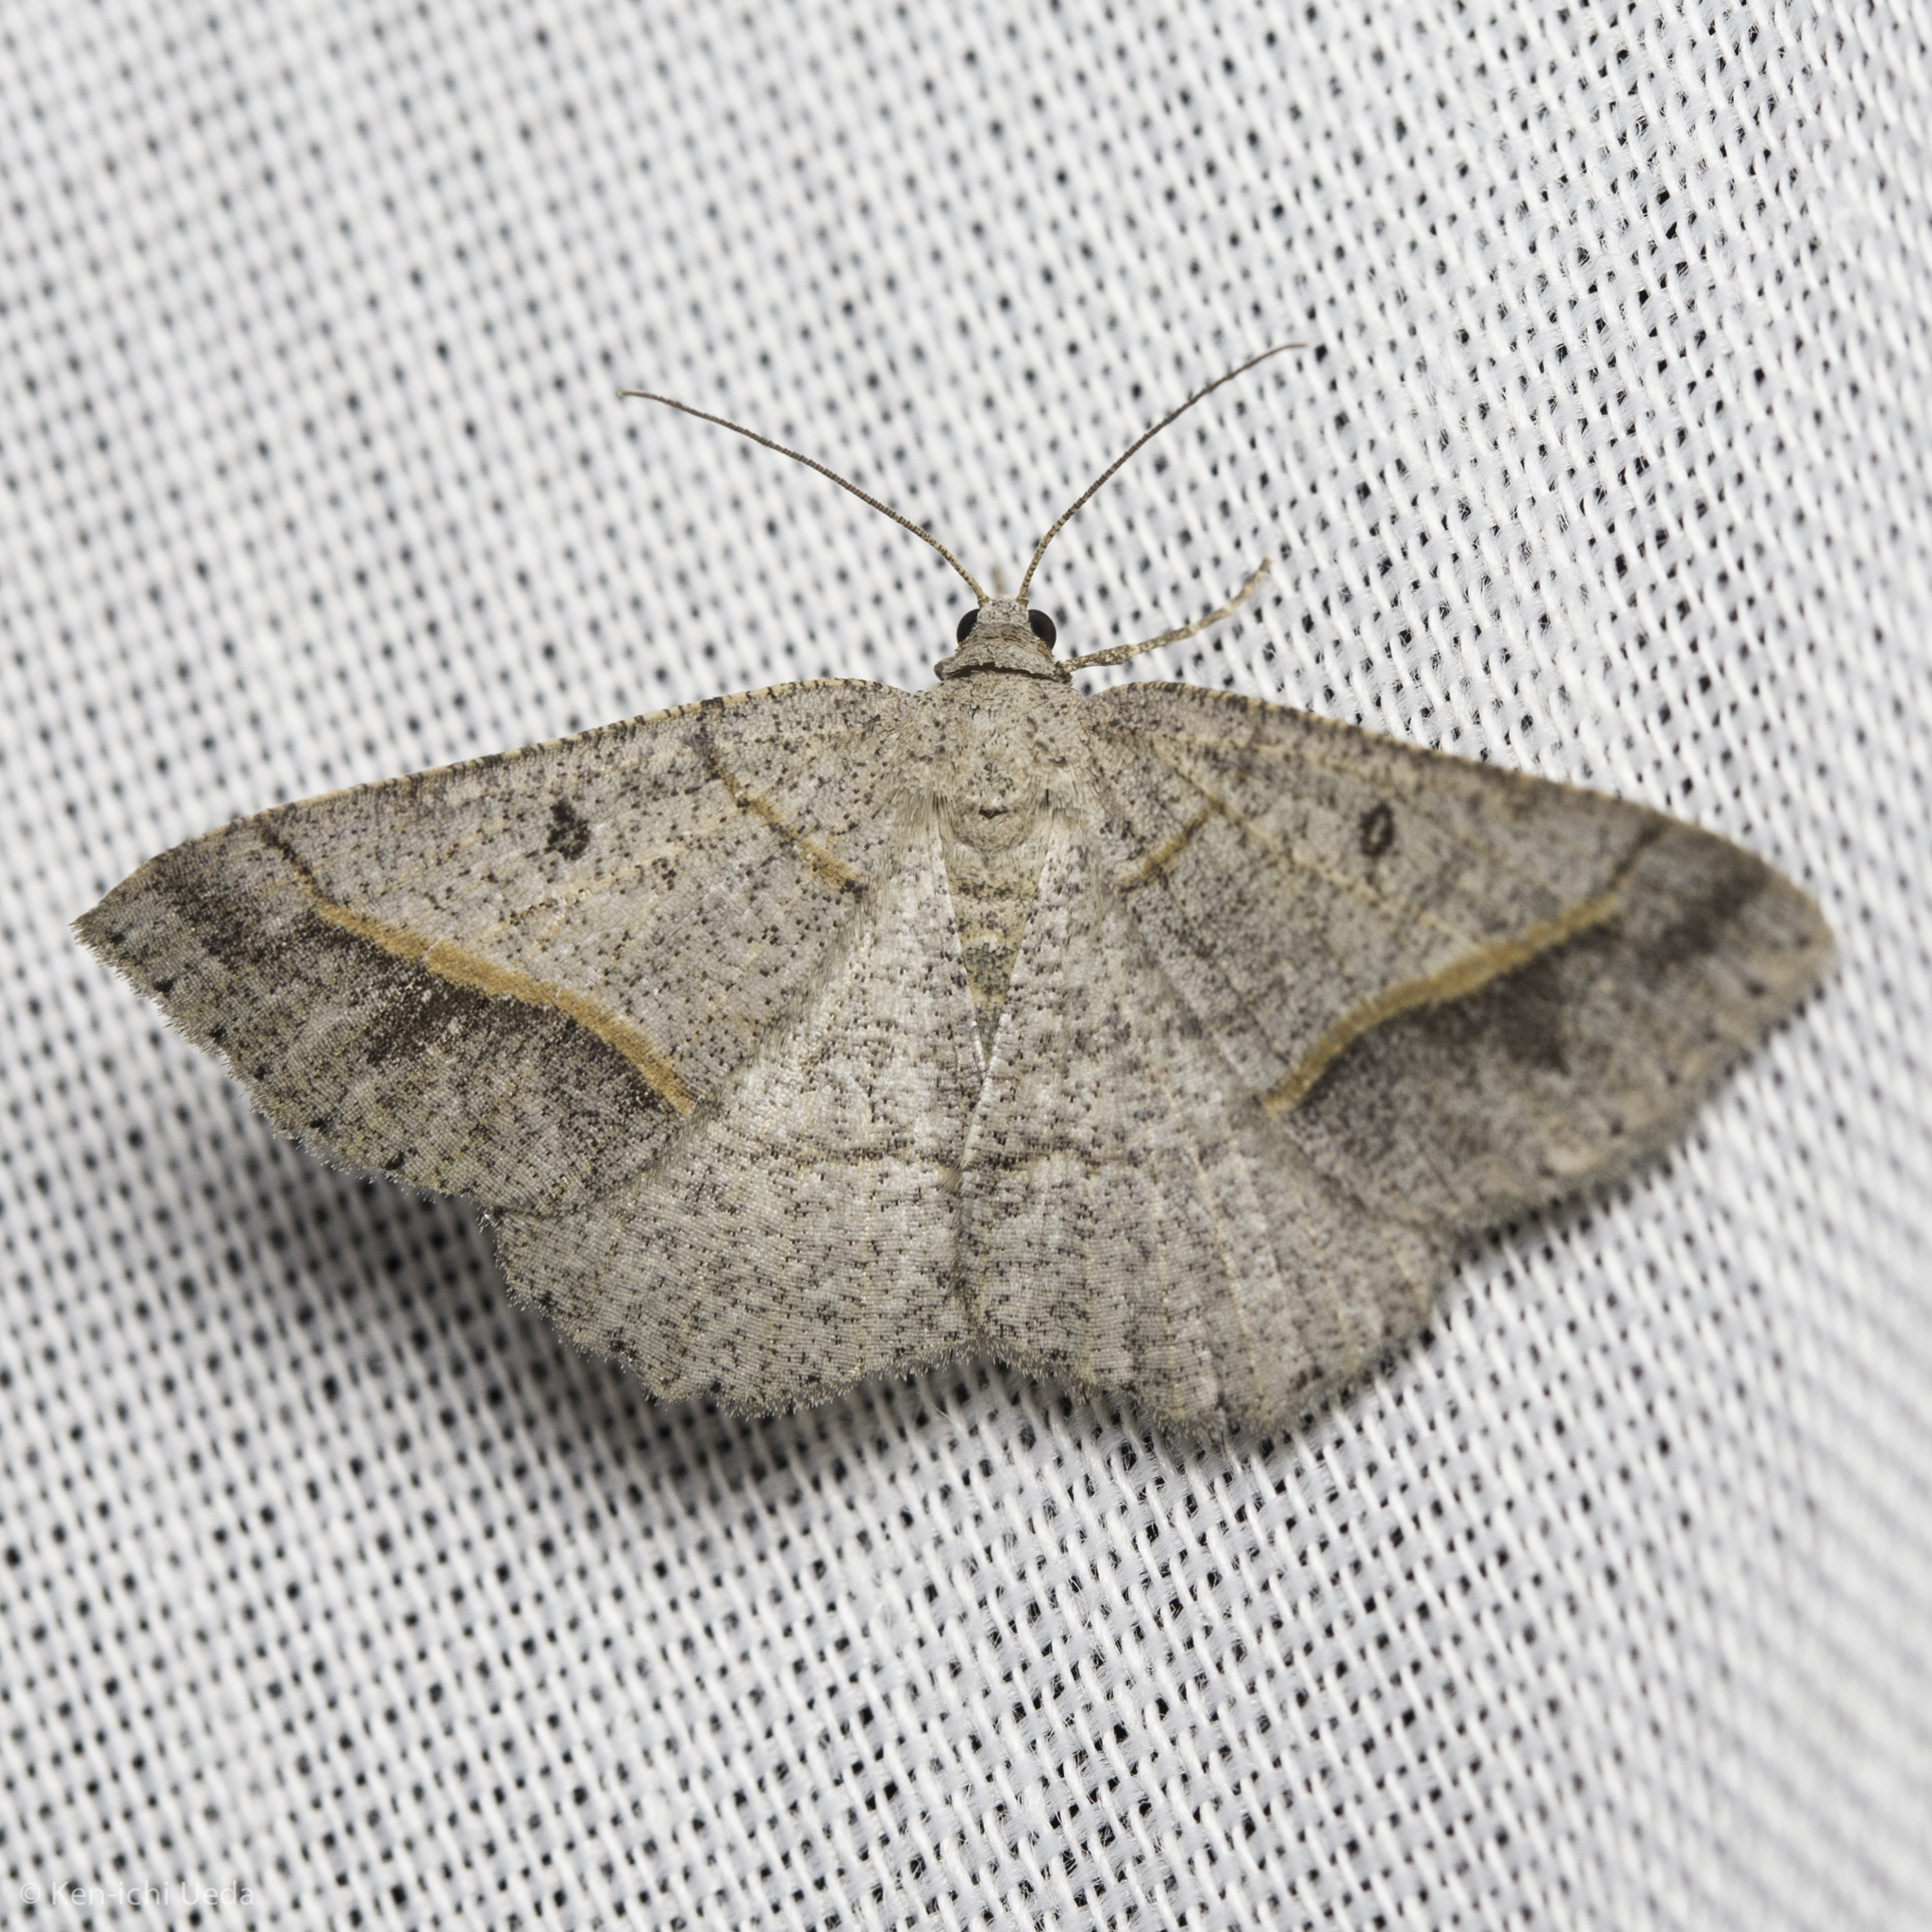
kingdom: Animalia
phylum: Arthropoda
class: Insecta
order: Lepidoptera
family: Geometridae
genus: Digrammia
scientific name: Digrammia neptaria
